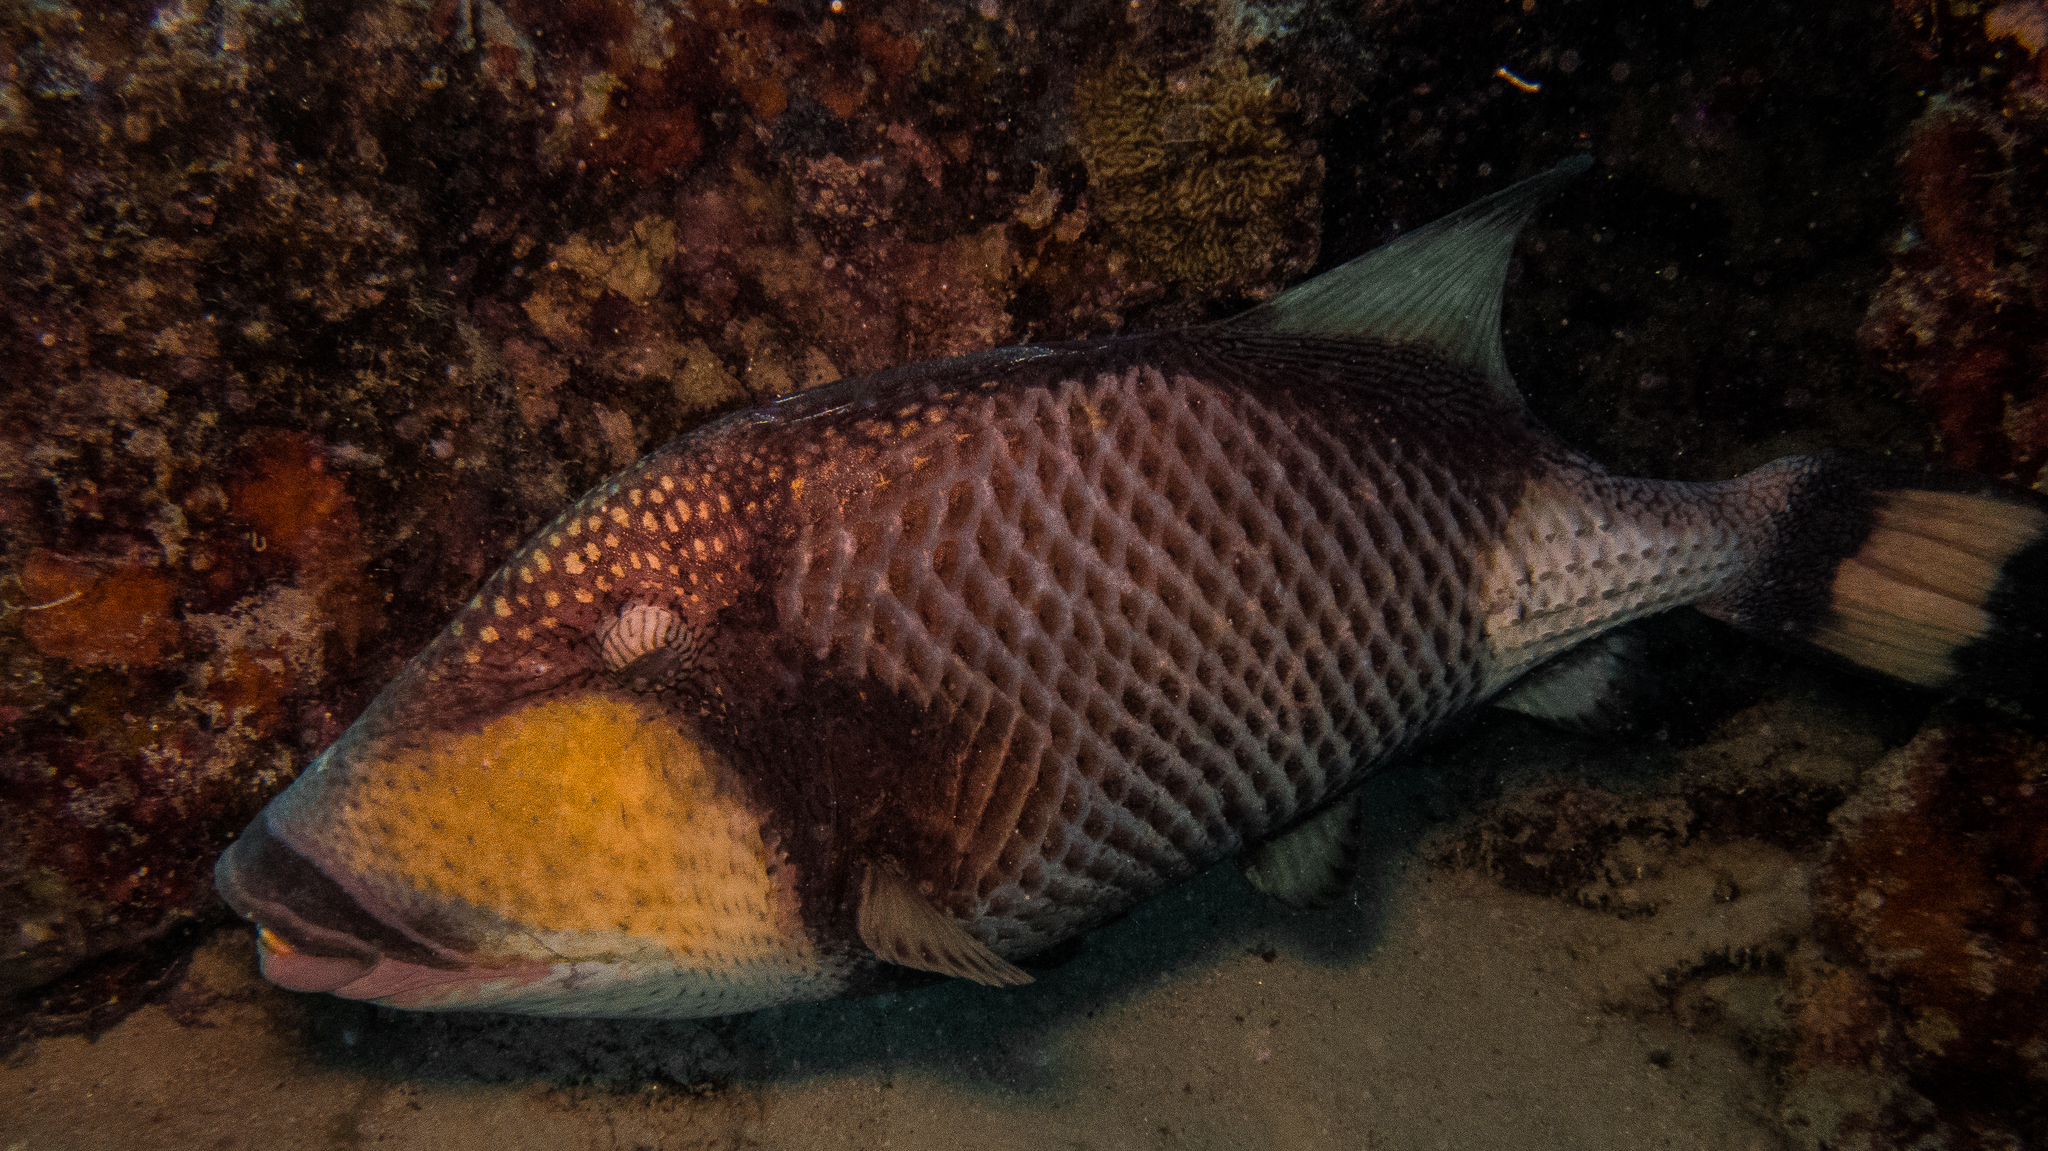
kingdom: Animalia
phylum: Chordata
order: Tetraodontiformes
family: Balistidae
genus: Balistoides
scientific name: Balistoides viridescens
